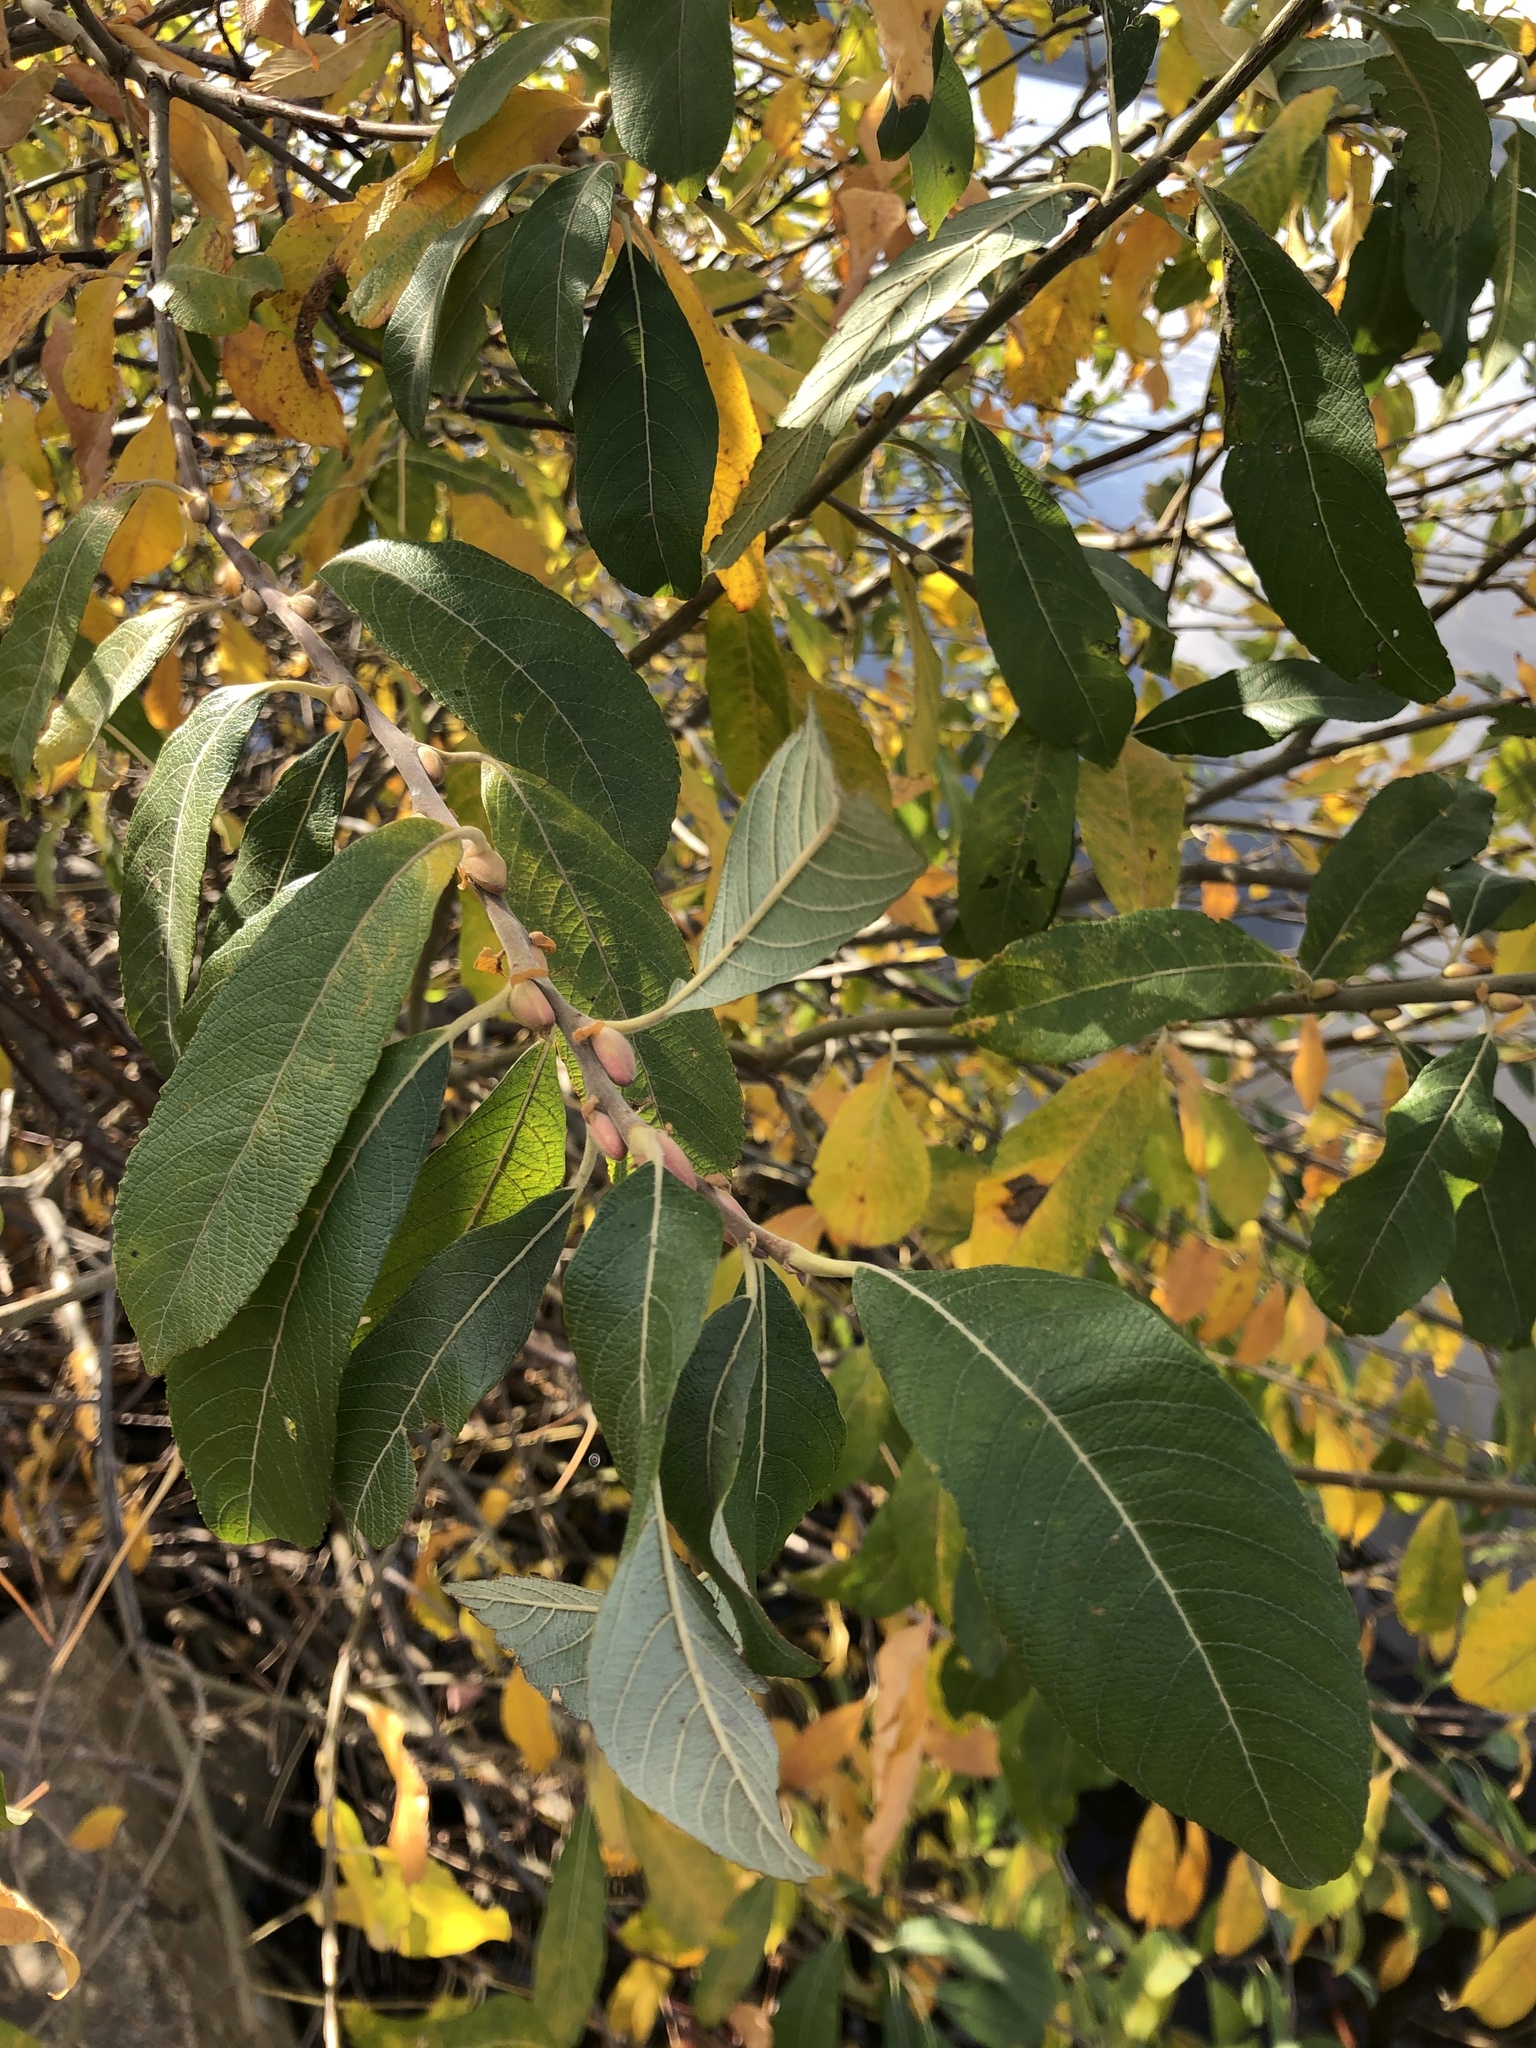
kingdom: Plantae
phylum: Tracheophyta
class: Magnoliopsida
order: Malpighiales
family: Salicaceae
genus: Salix
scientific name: Salix cinerea
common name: Common sallow
